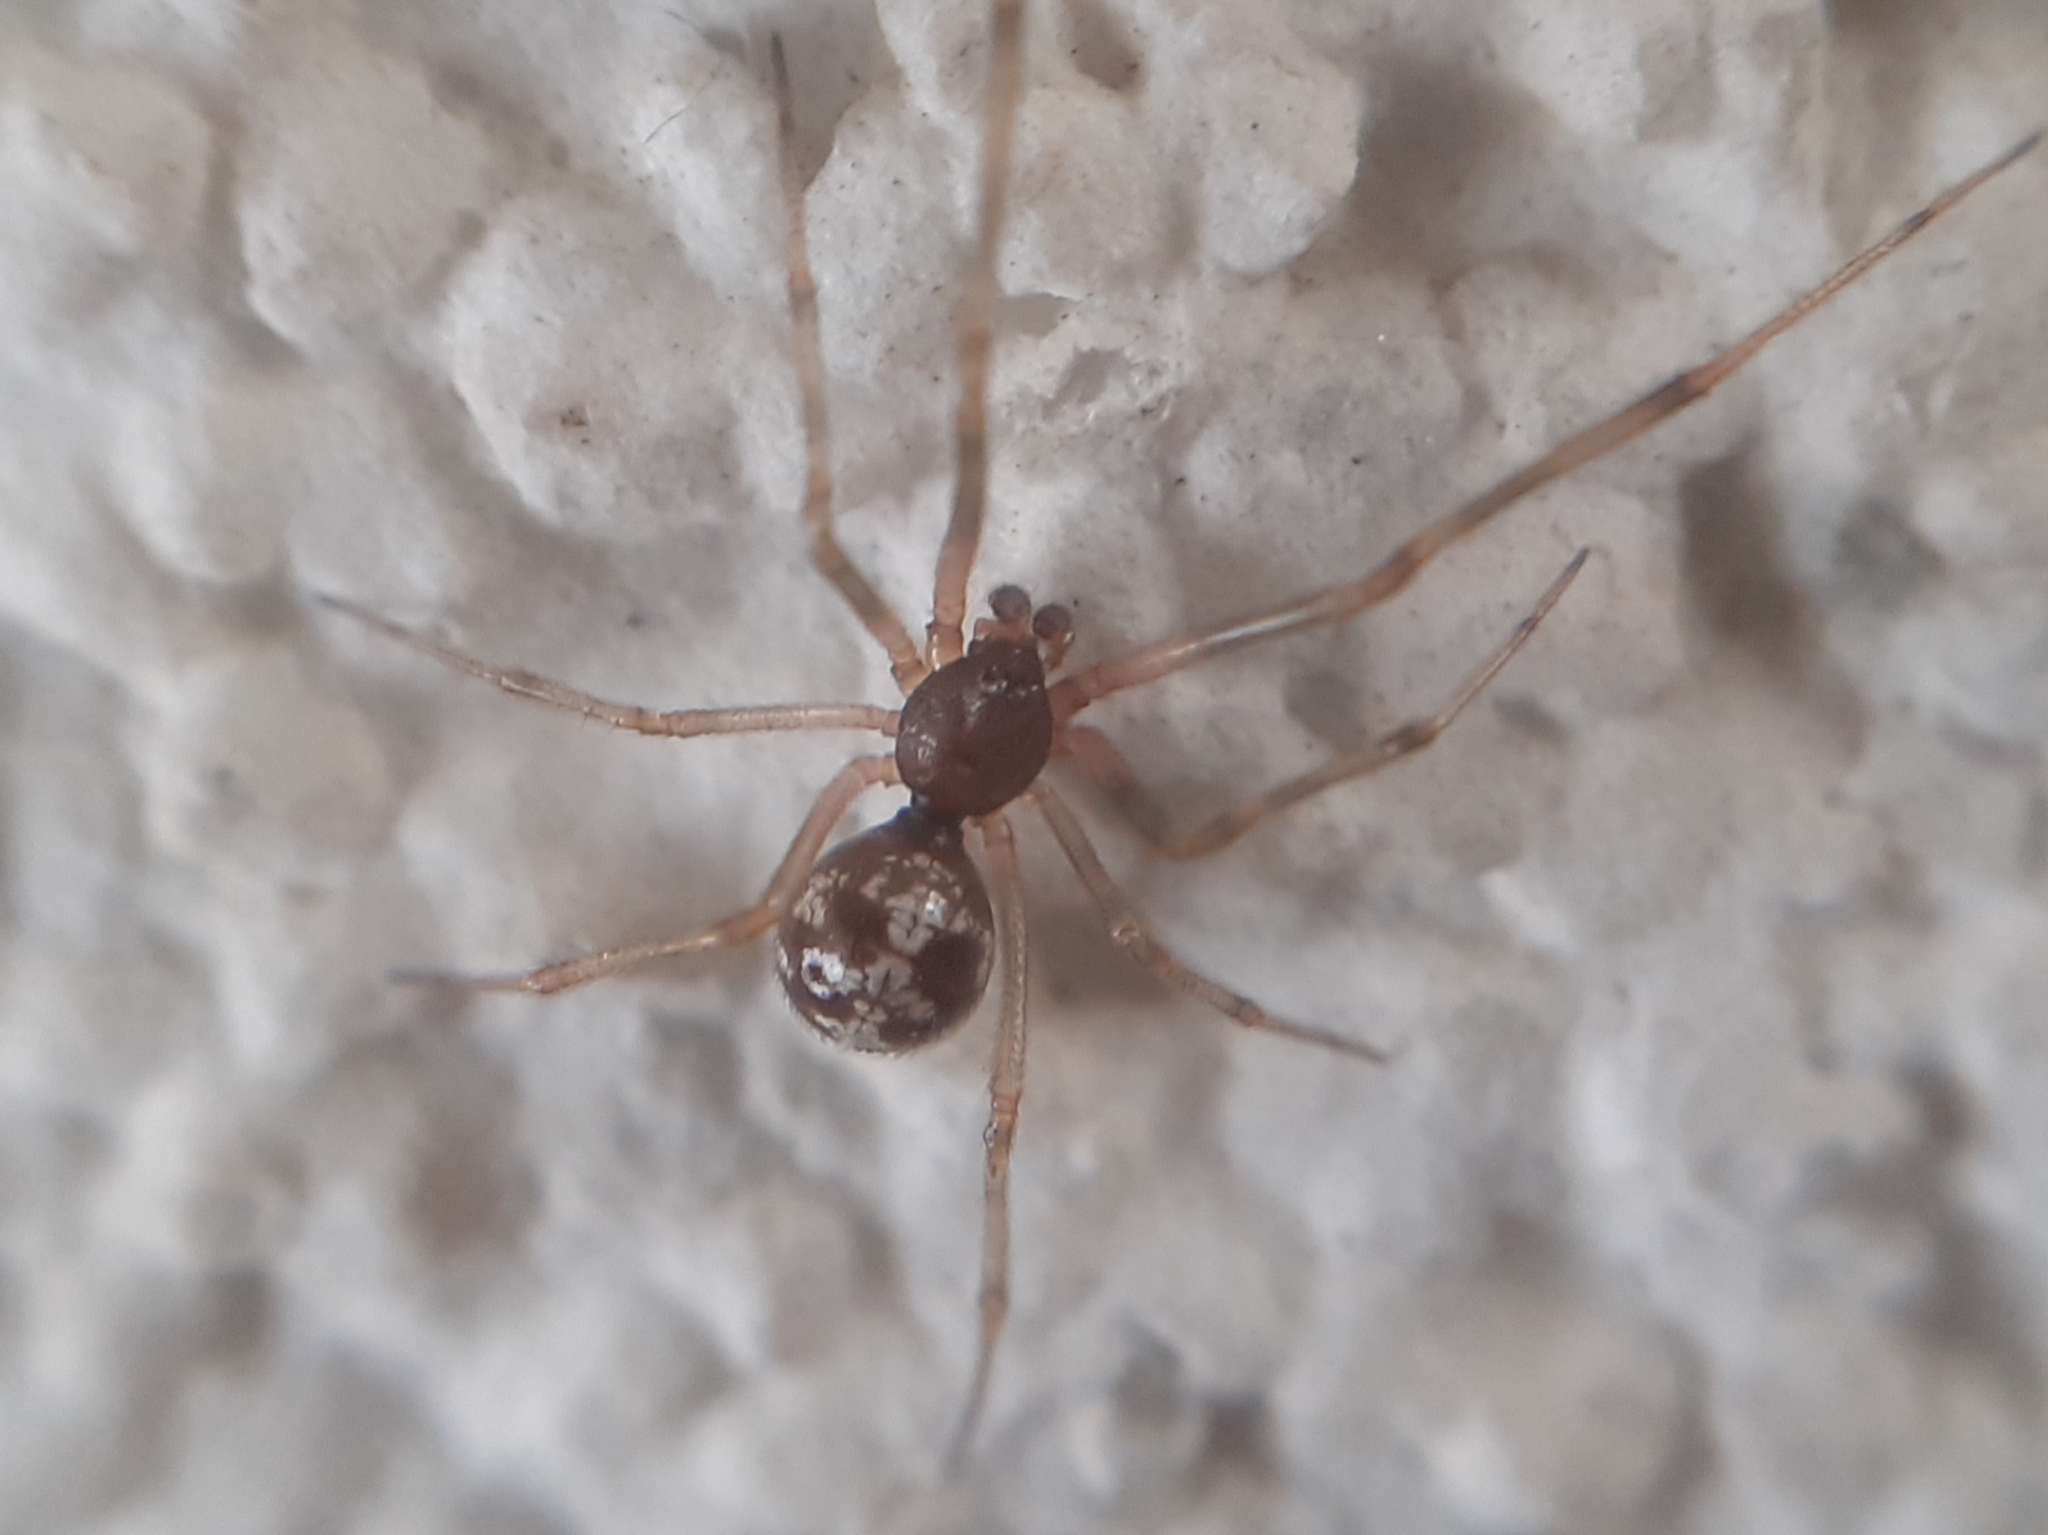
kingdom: Animalia
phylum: Arthropoda
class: Arachnida
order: Araneae
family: Theridiidae
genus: Steatoda
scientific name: Steatoda triangulosa
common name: Triangulate bud spider
